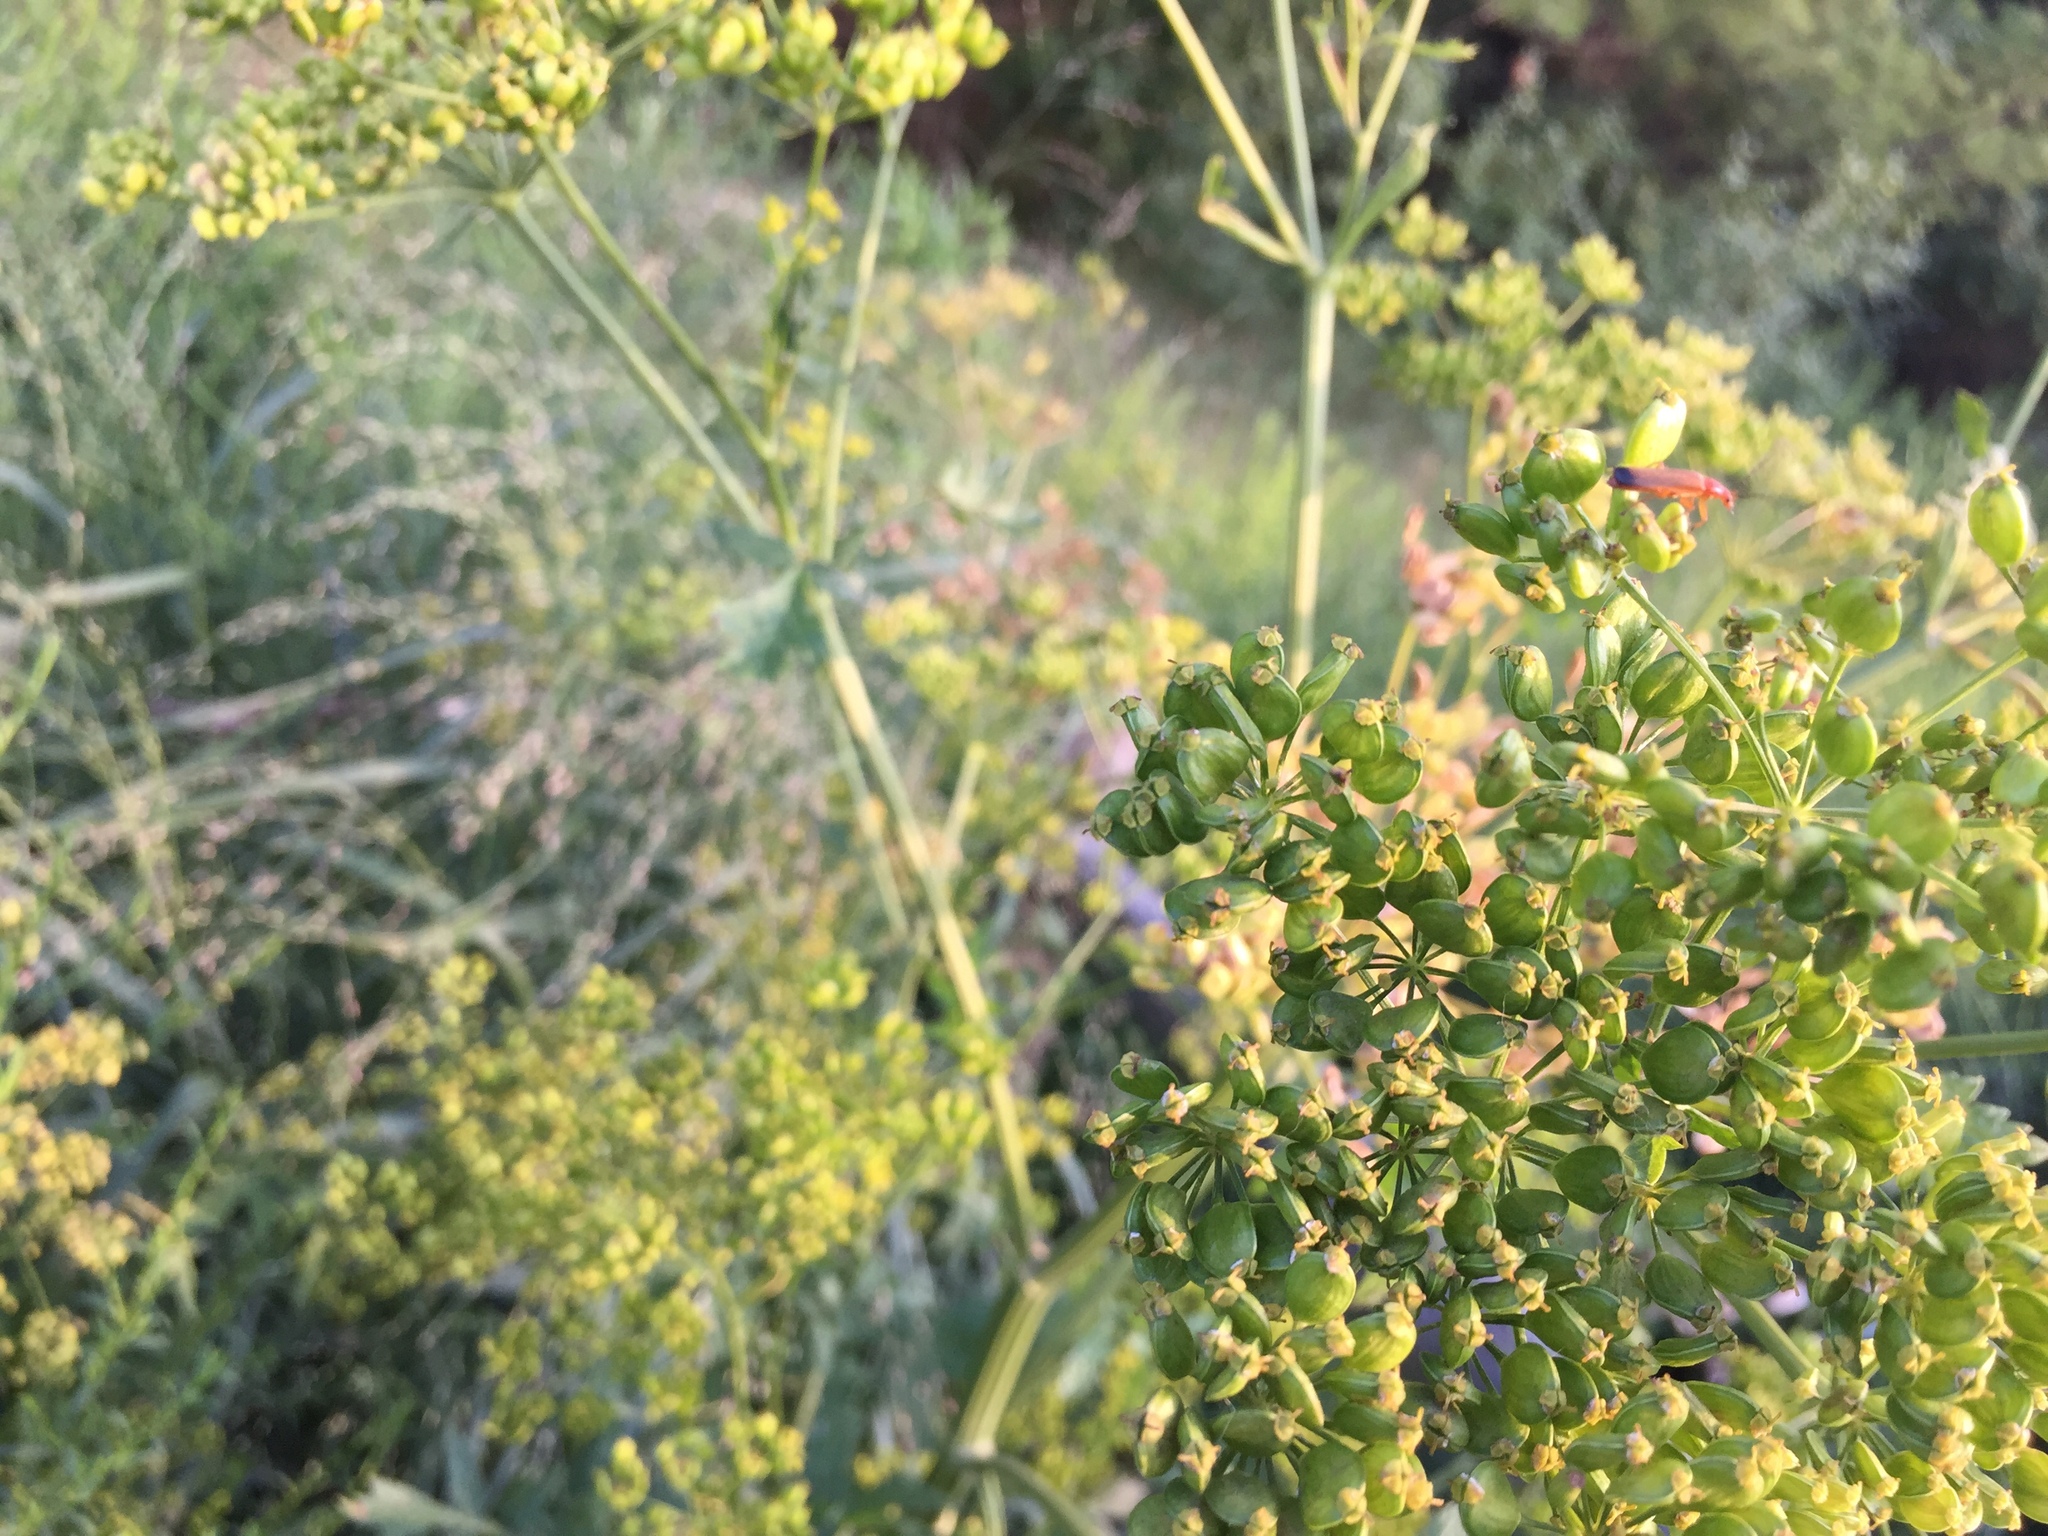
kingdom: Plantae
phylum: Tracheophyta
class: Magnoliopsida
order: Apiales
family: Apiaceae
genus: Pastinaca
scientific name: Pastinaca sativa
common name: Wild parsnip
